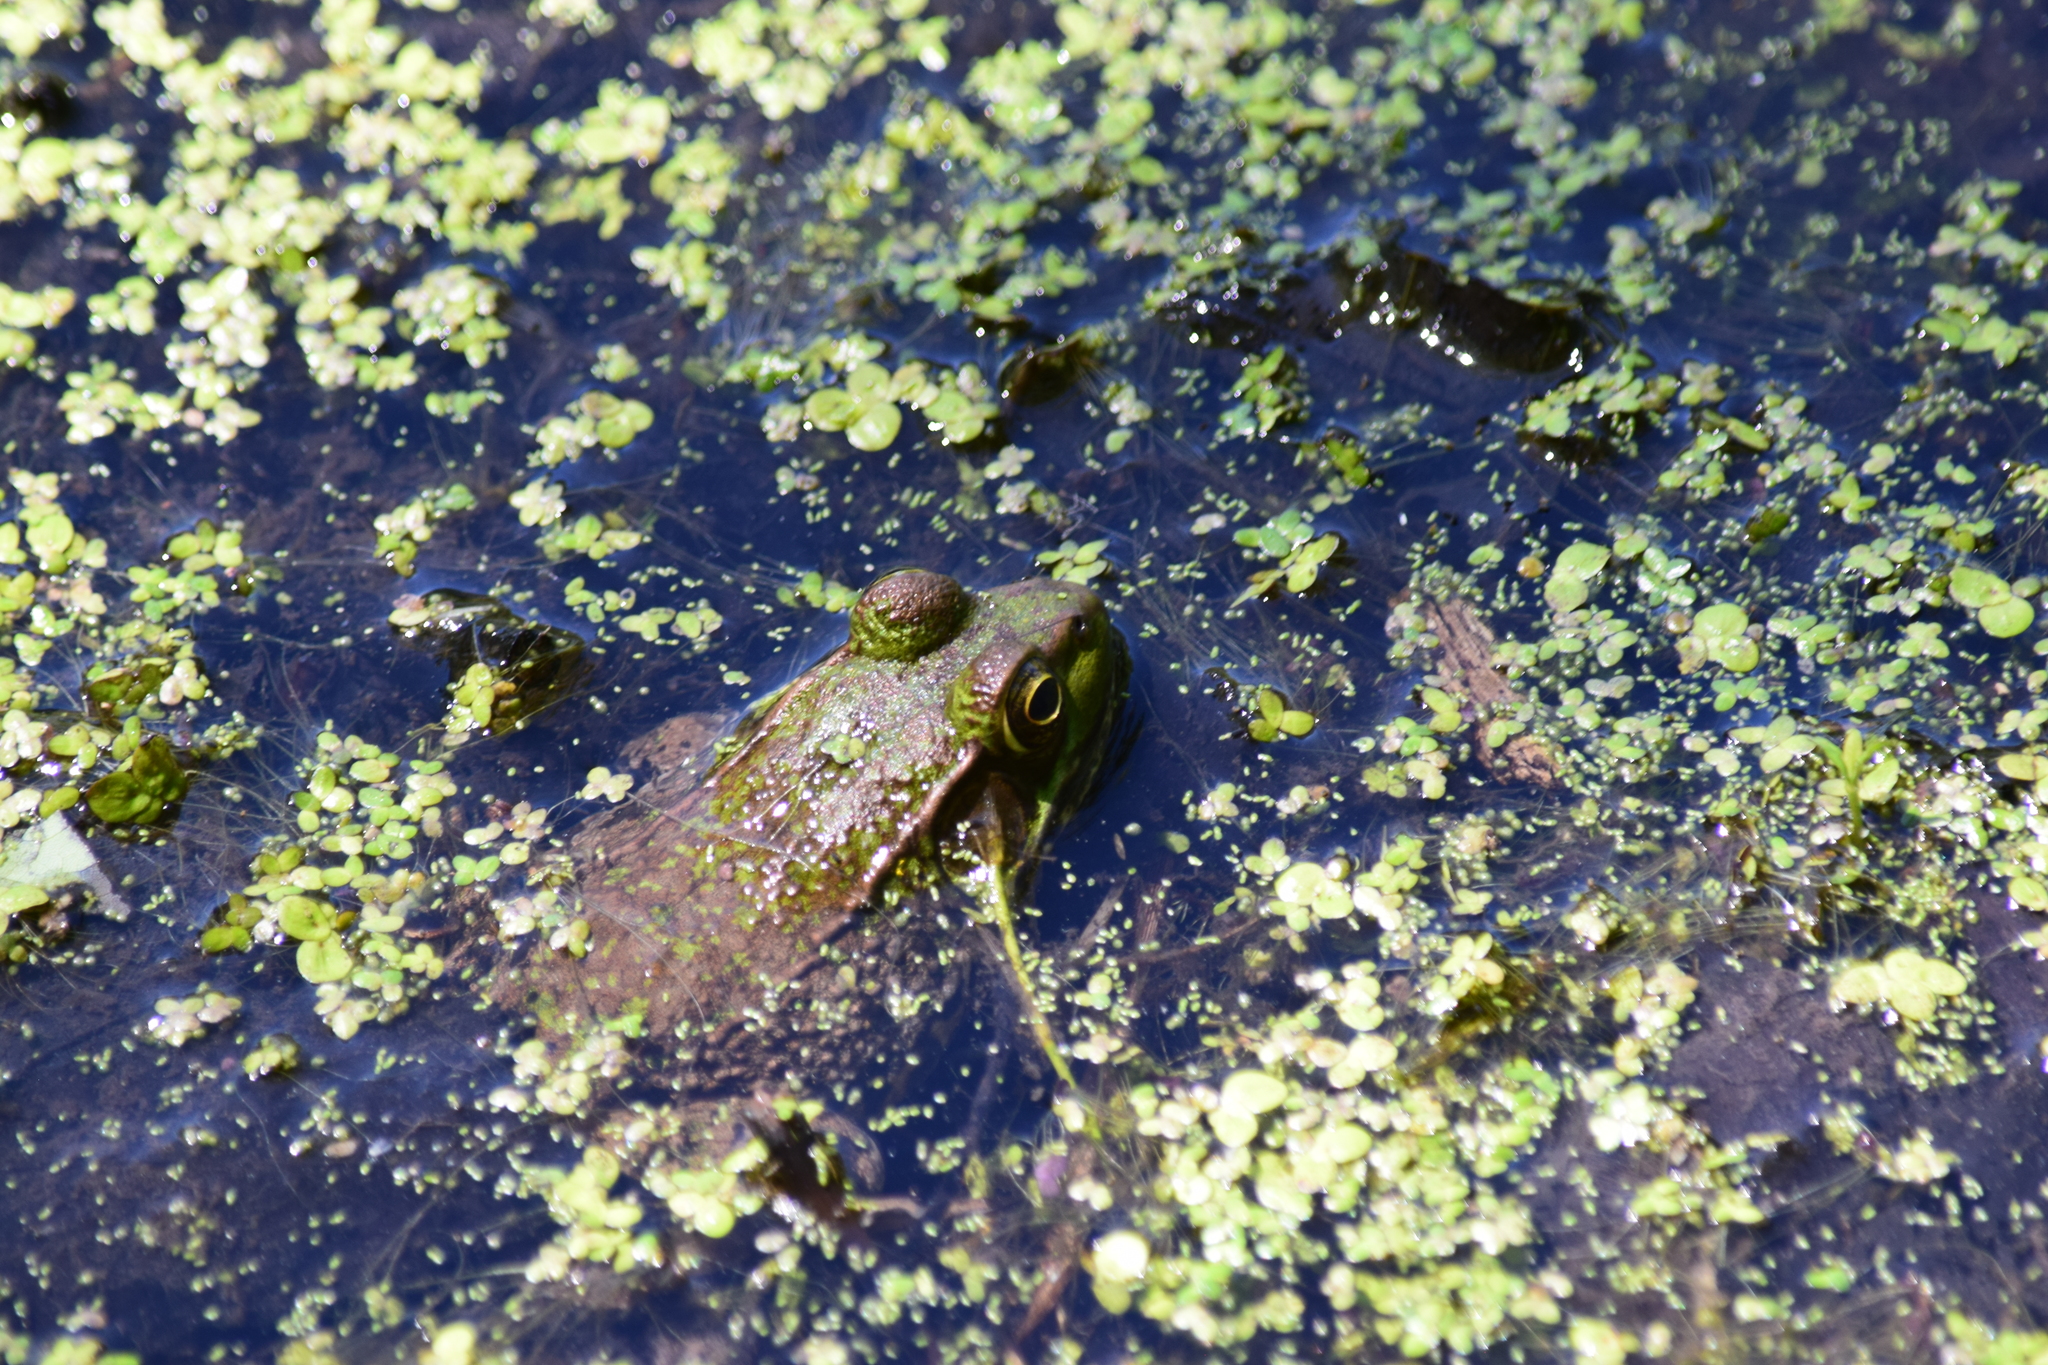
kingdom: Animalia
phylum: Chordata
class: Amphibia
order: Anura
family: Ranidae
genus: Lithobates
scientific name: Lithobates clamitans
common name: Green frog
